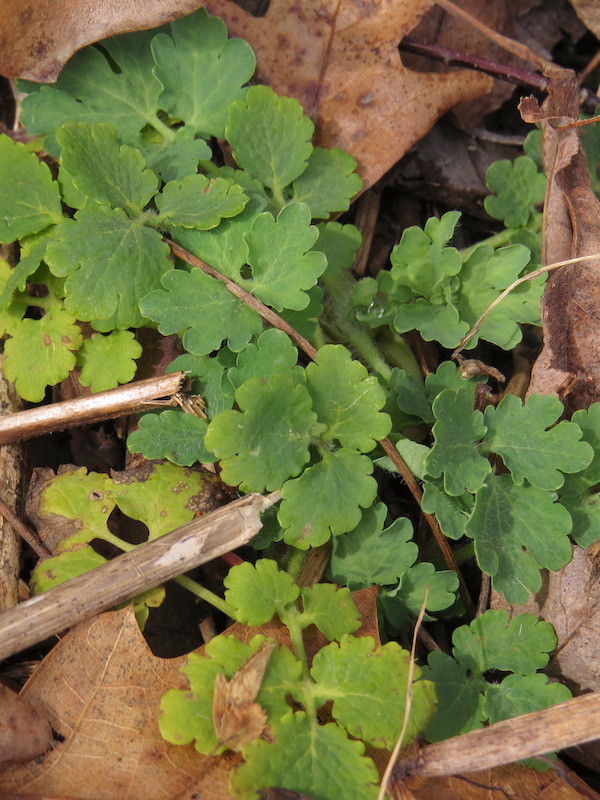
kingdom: Plantae
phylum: Tracheophyta
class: Magnoliopsida
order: Ranunculales
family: Papaveraceae
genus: Chelidonium
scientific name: Chelidonium majus
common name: Greater celandine
